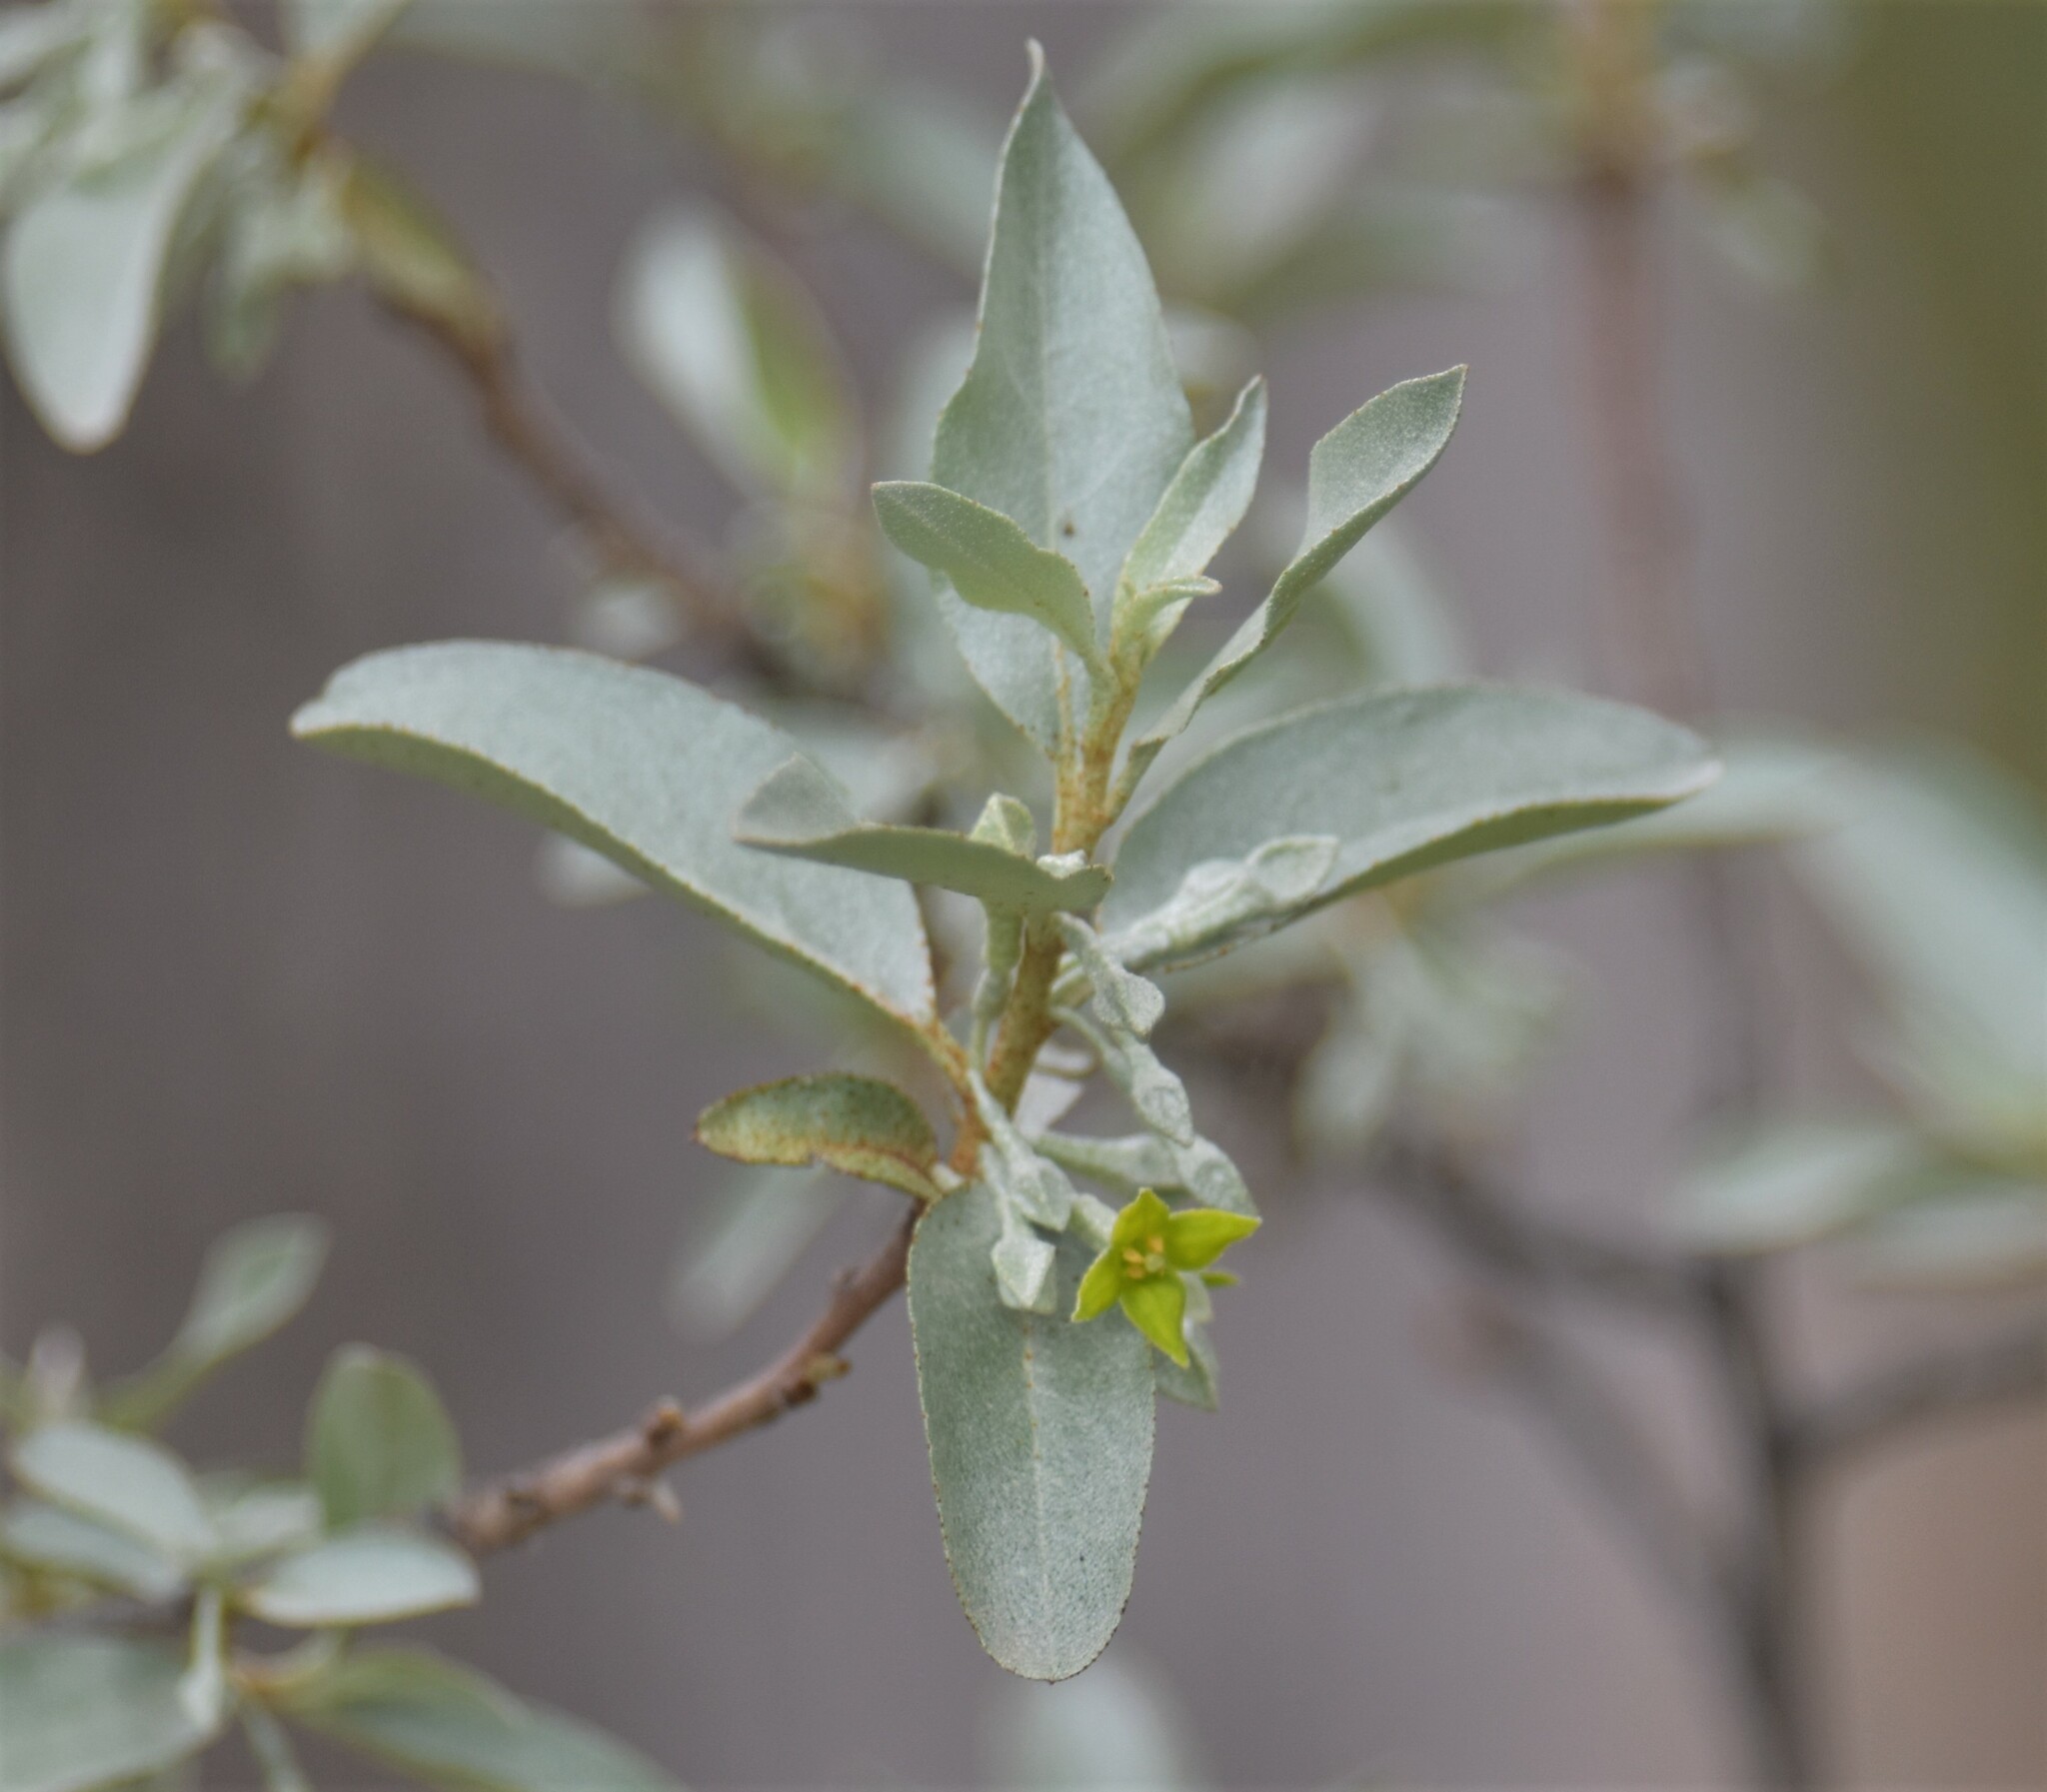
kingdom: Plantae
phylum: Tracheophyta
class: Magnoliopsida
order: Rosales
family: Elaeagnaceae
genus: Elaeagnus
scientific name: Elaeagnus commutata
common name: Silverberry
